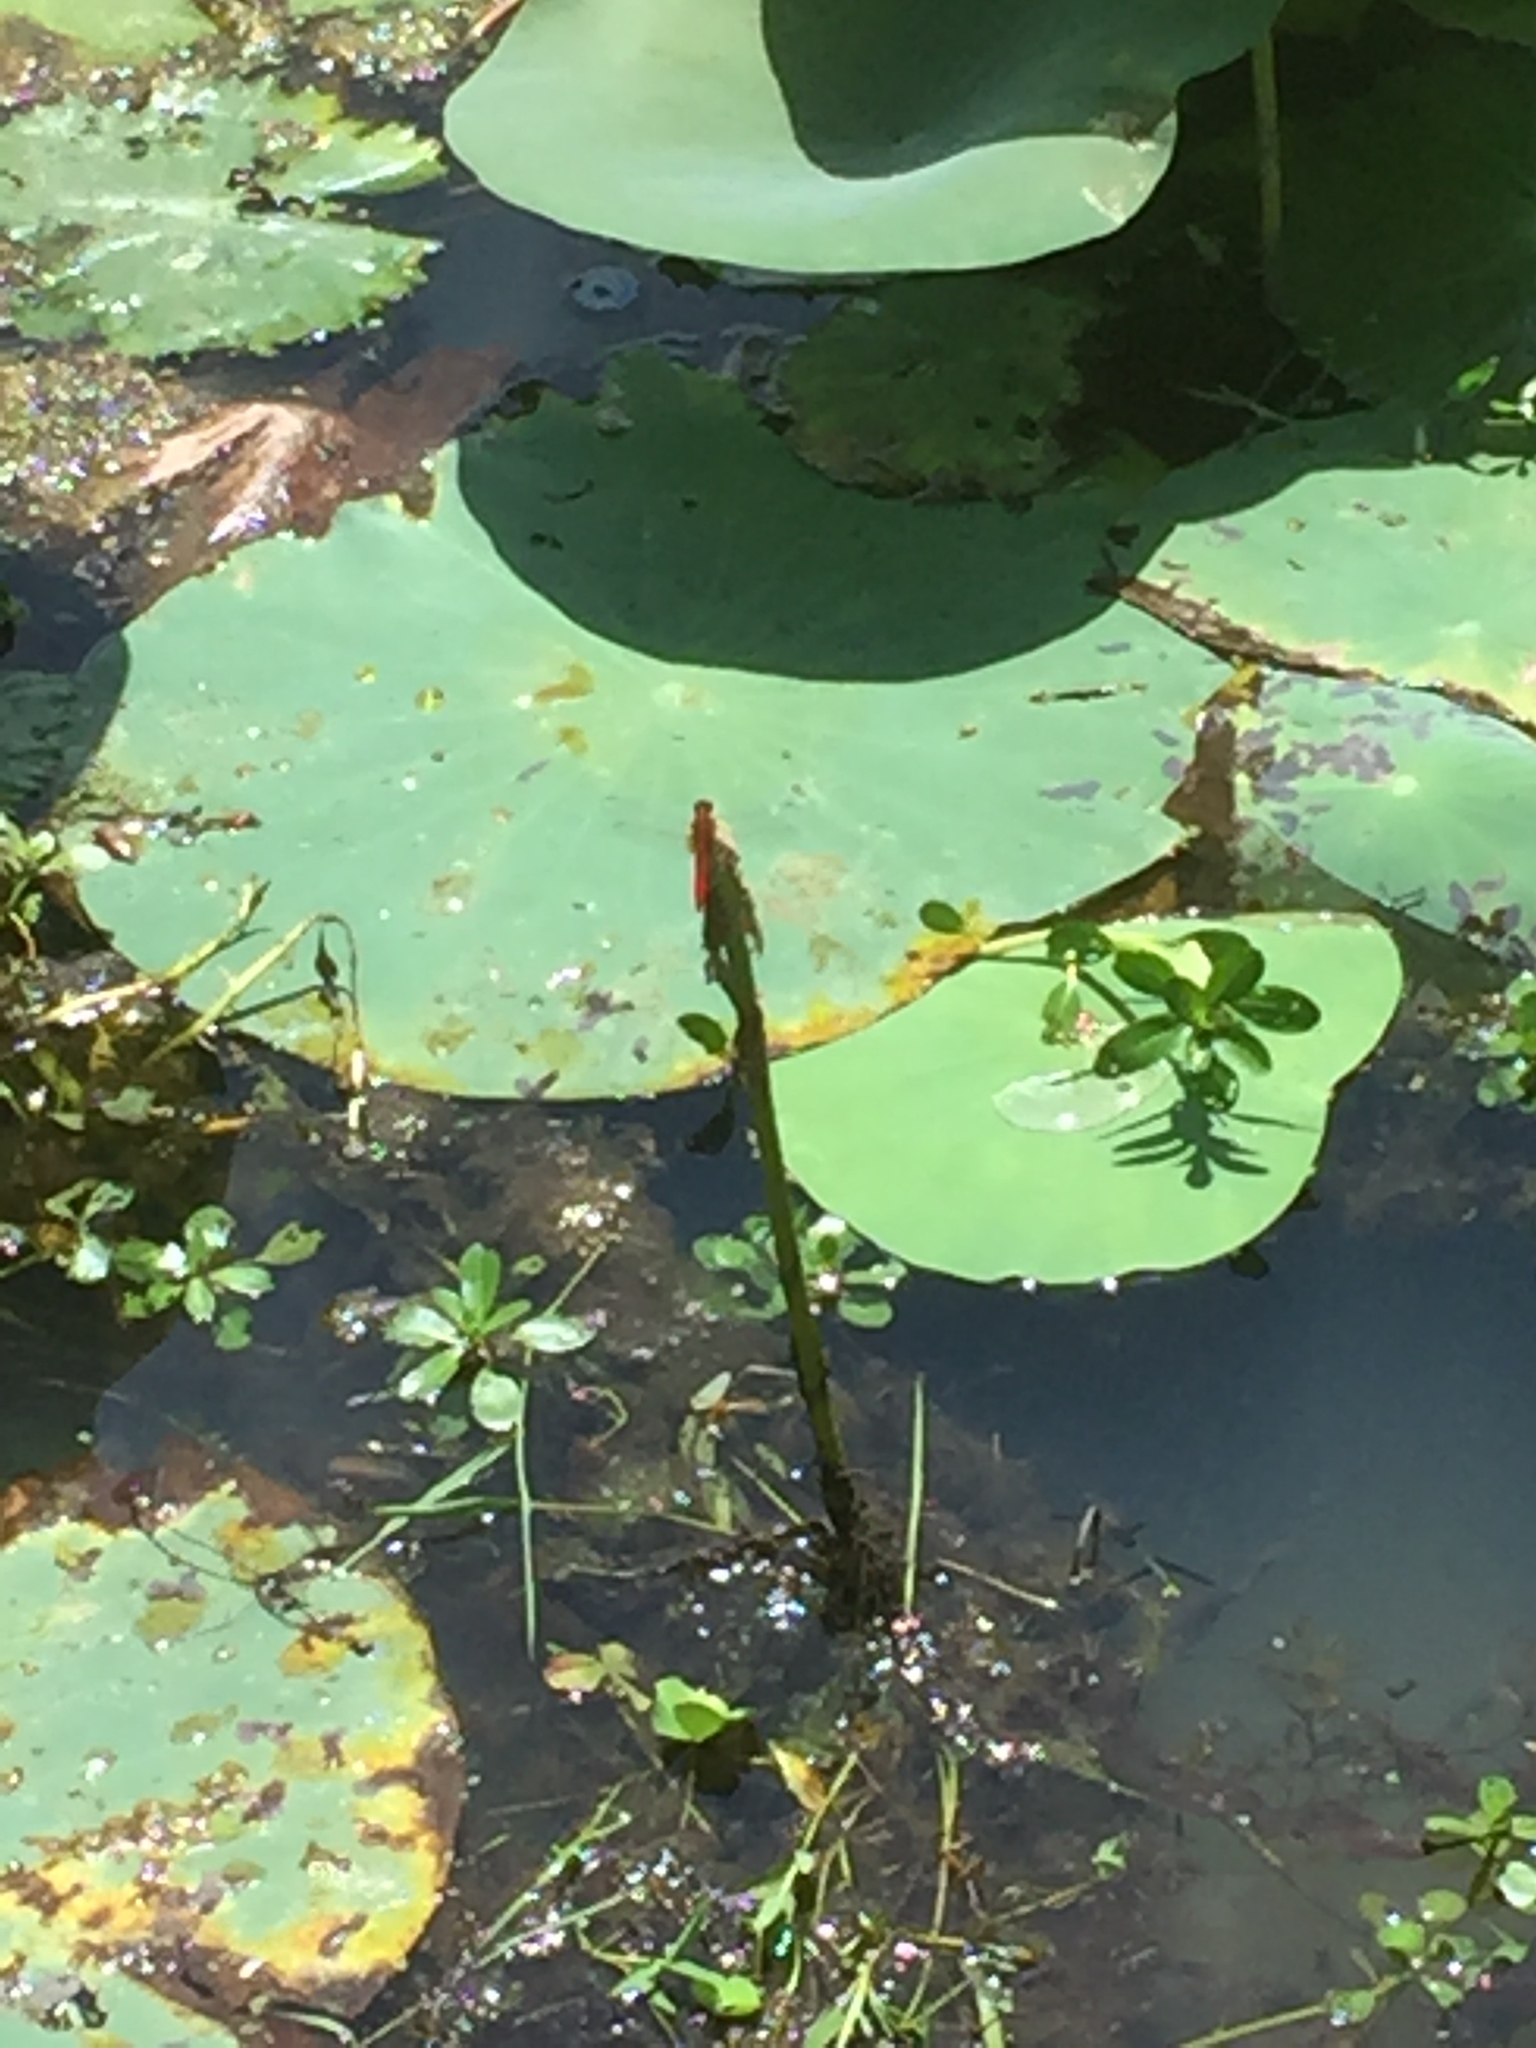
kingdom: Animalia
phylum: Arthropoda
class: Insecta
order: Odonata
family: Libellulidae
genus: Crocothemis
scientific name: Crocothemis servilia
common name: Scarlet skimmer
